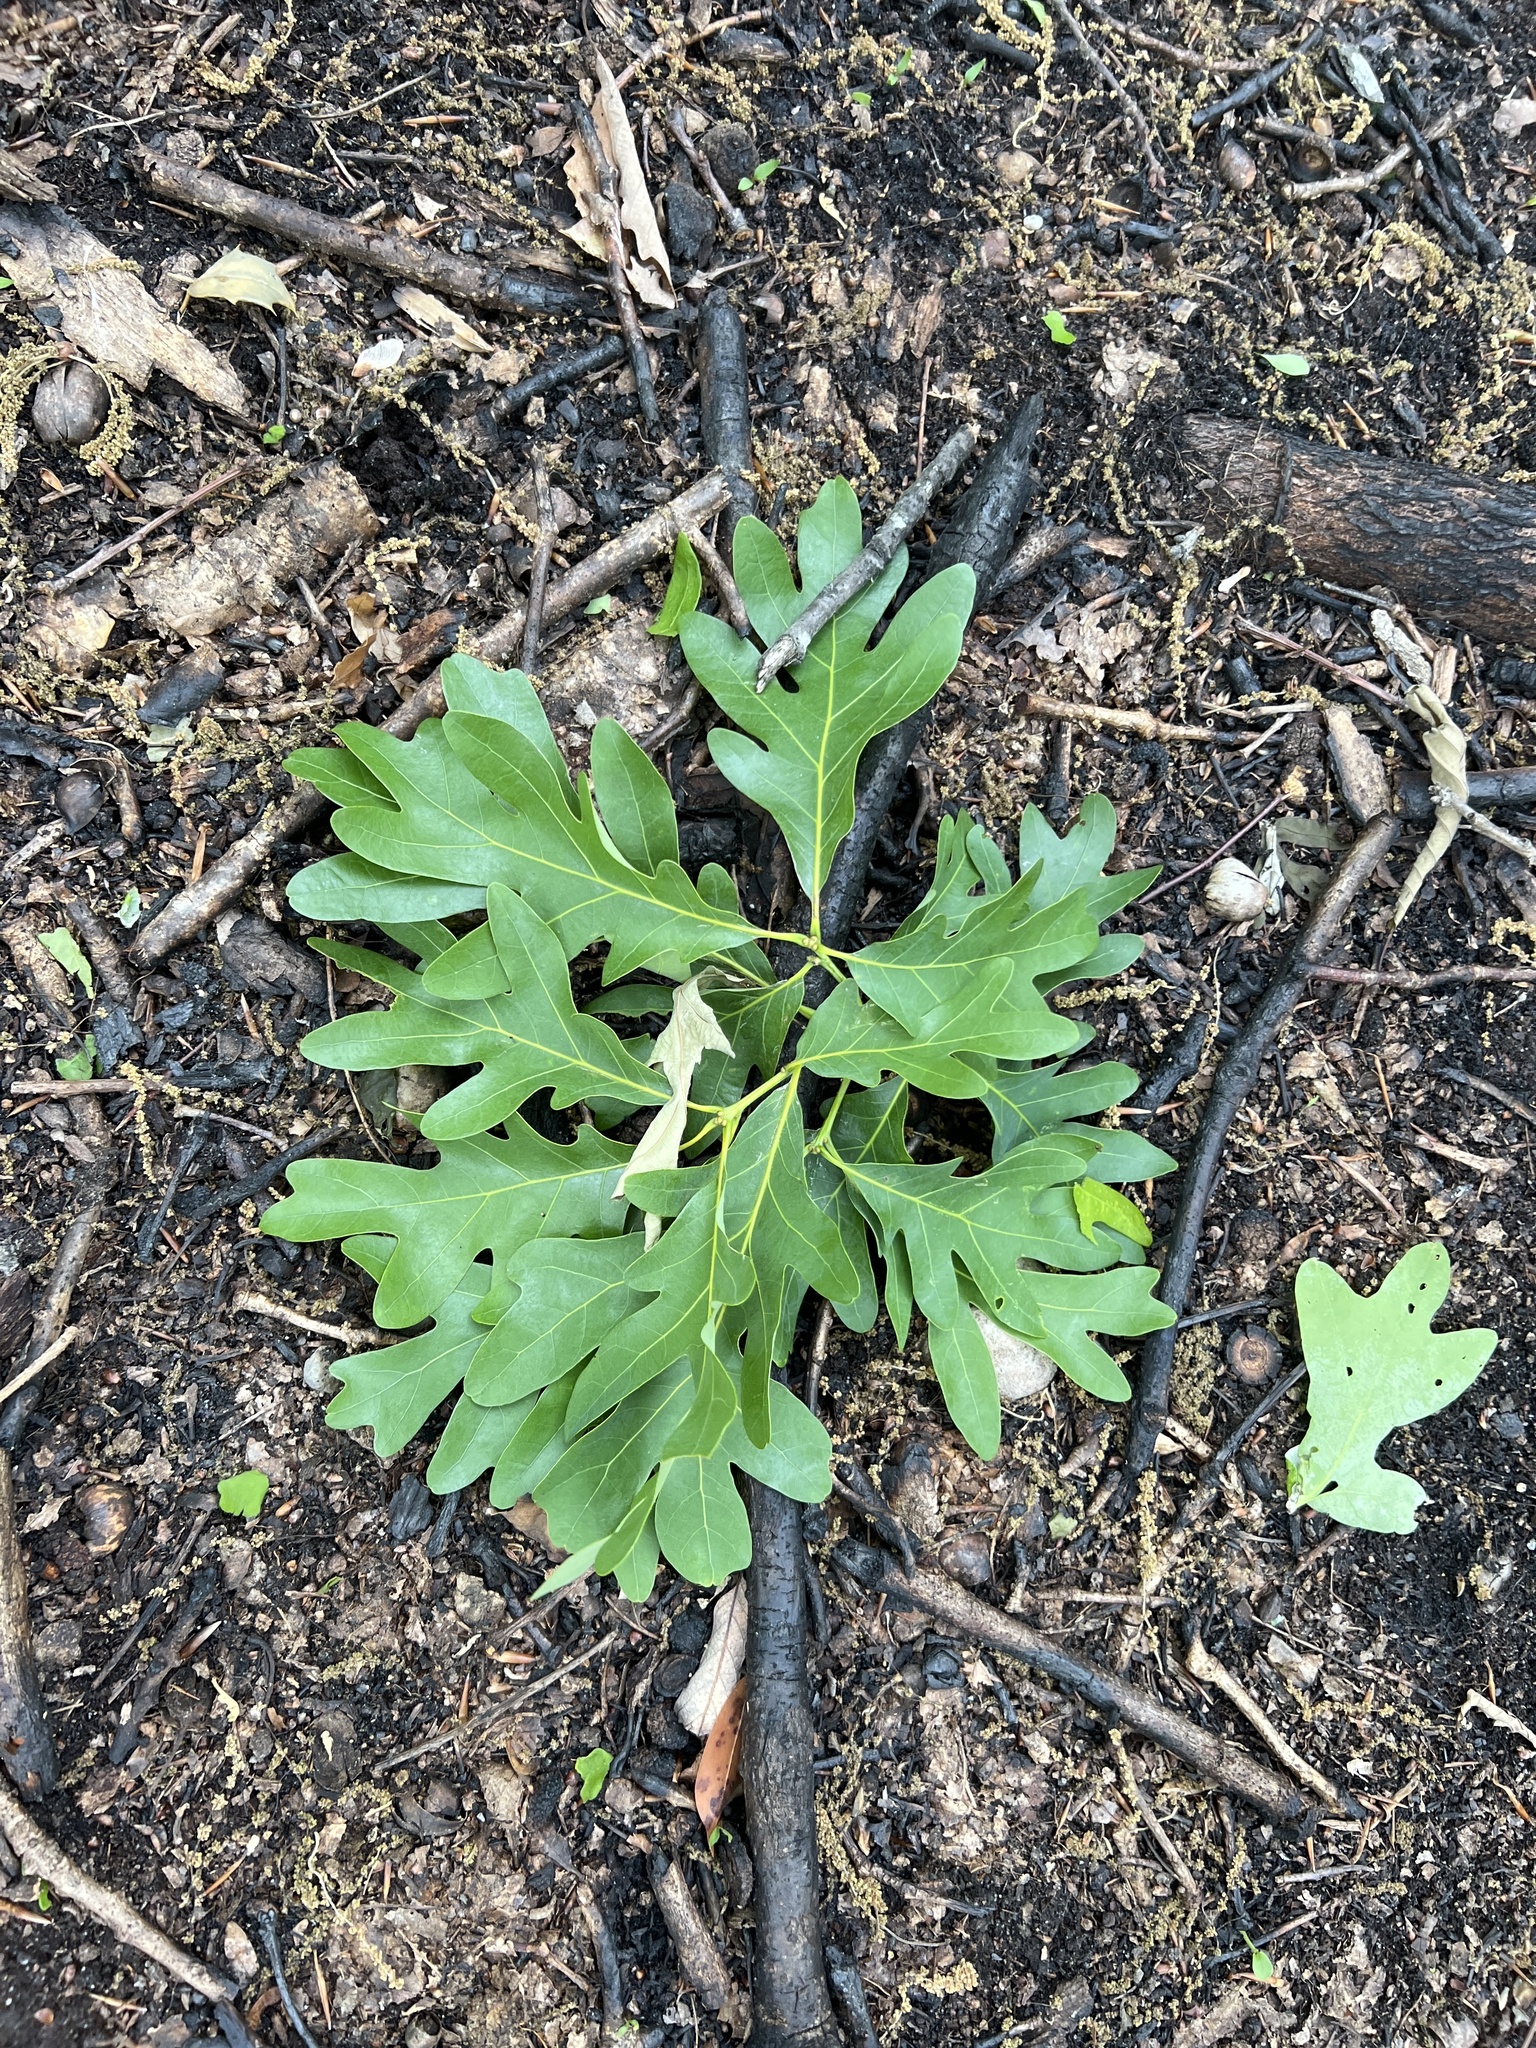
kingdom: Plantae
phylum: Tracheophyta
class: Magnoliopsida
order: Fagales
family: Fagaceae
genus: Quercus
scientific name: Quercus alba
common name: White oak
